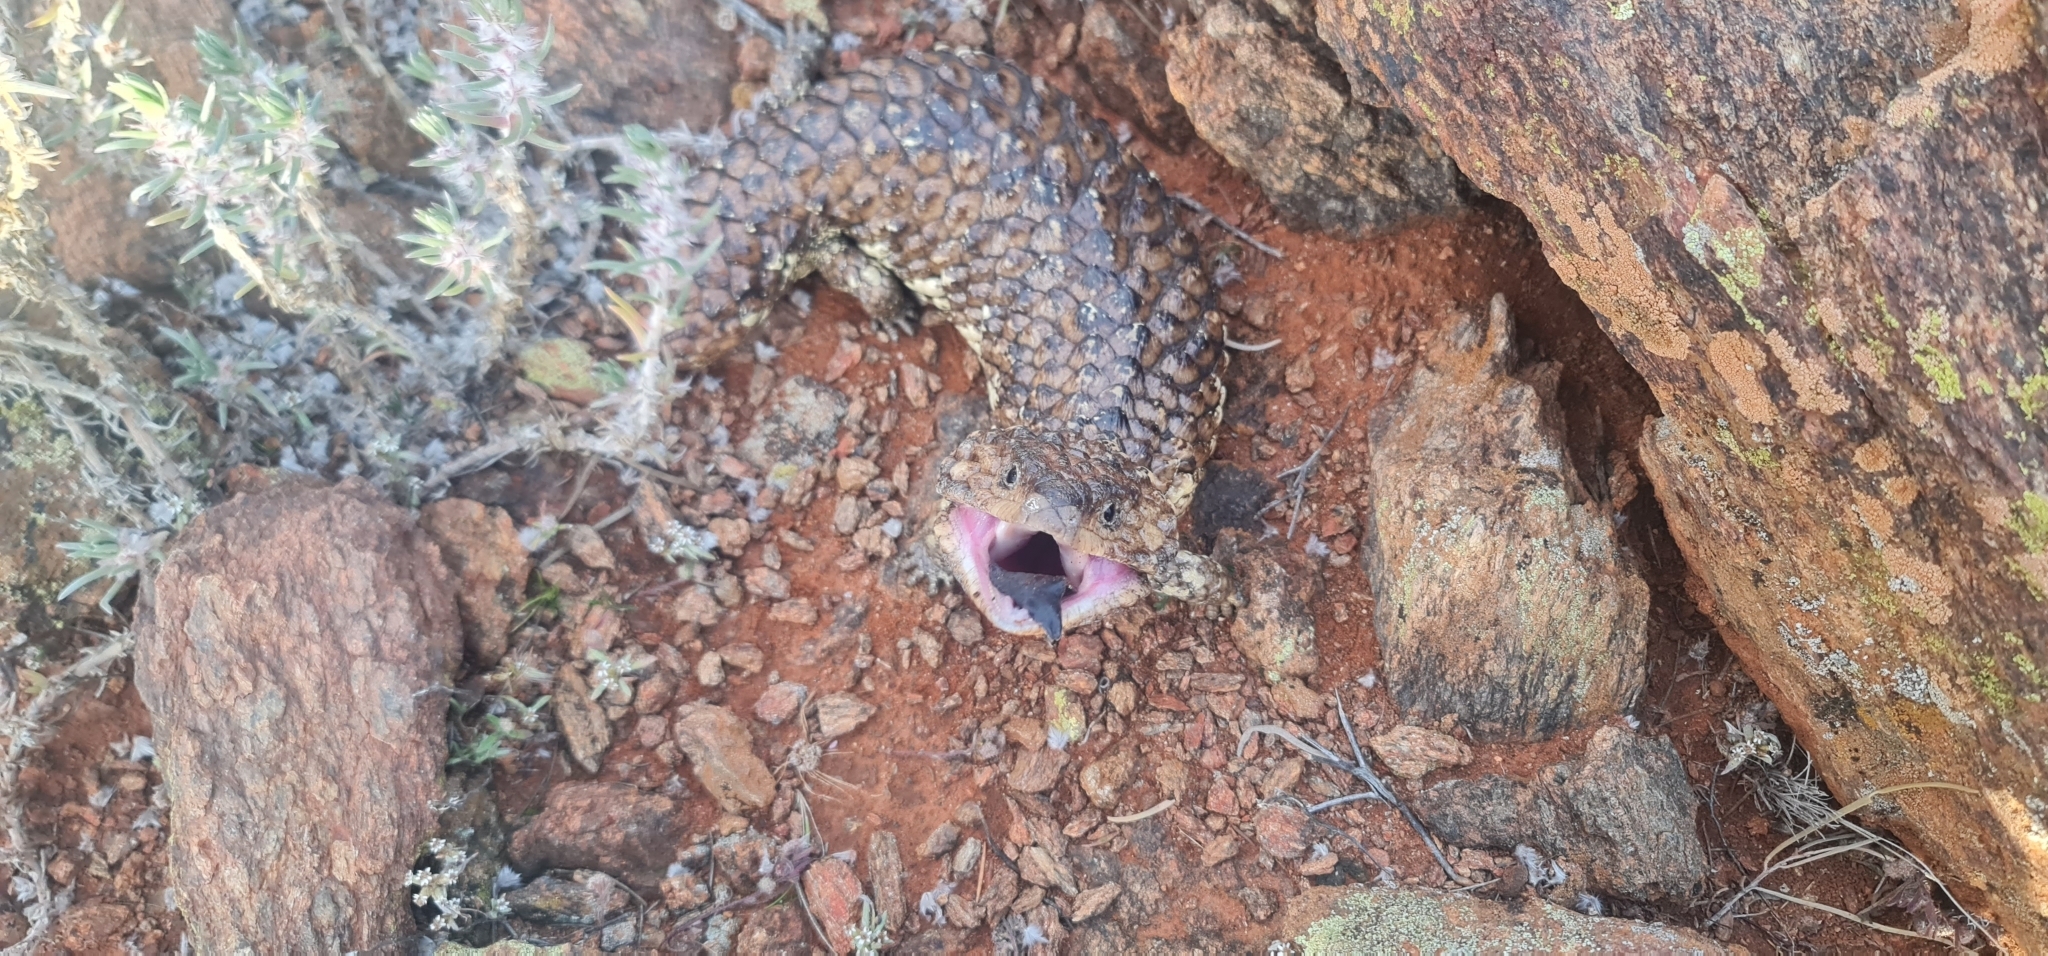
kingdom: Animalia
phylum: Chordata
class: Squamata
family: Scincidae
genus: Tiliqua
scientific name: Tiliqua rugosa
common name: Pinecone lizard
